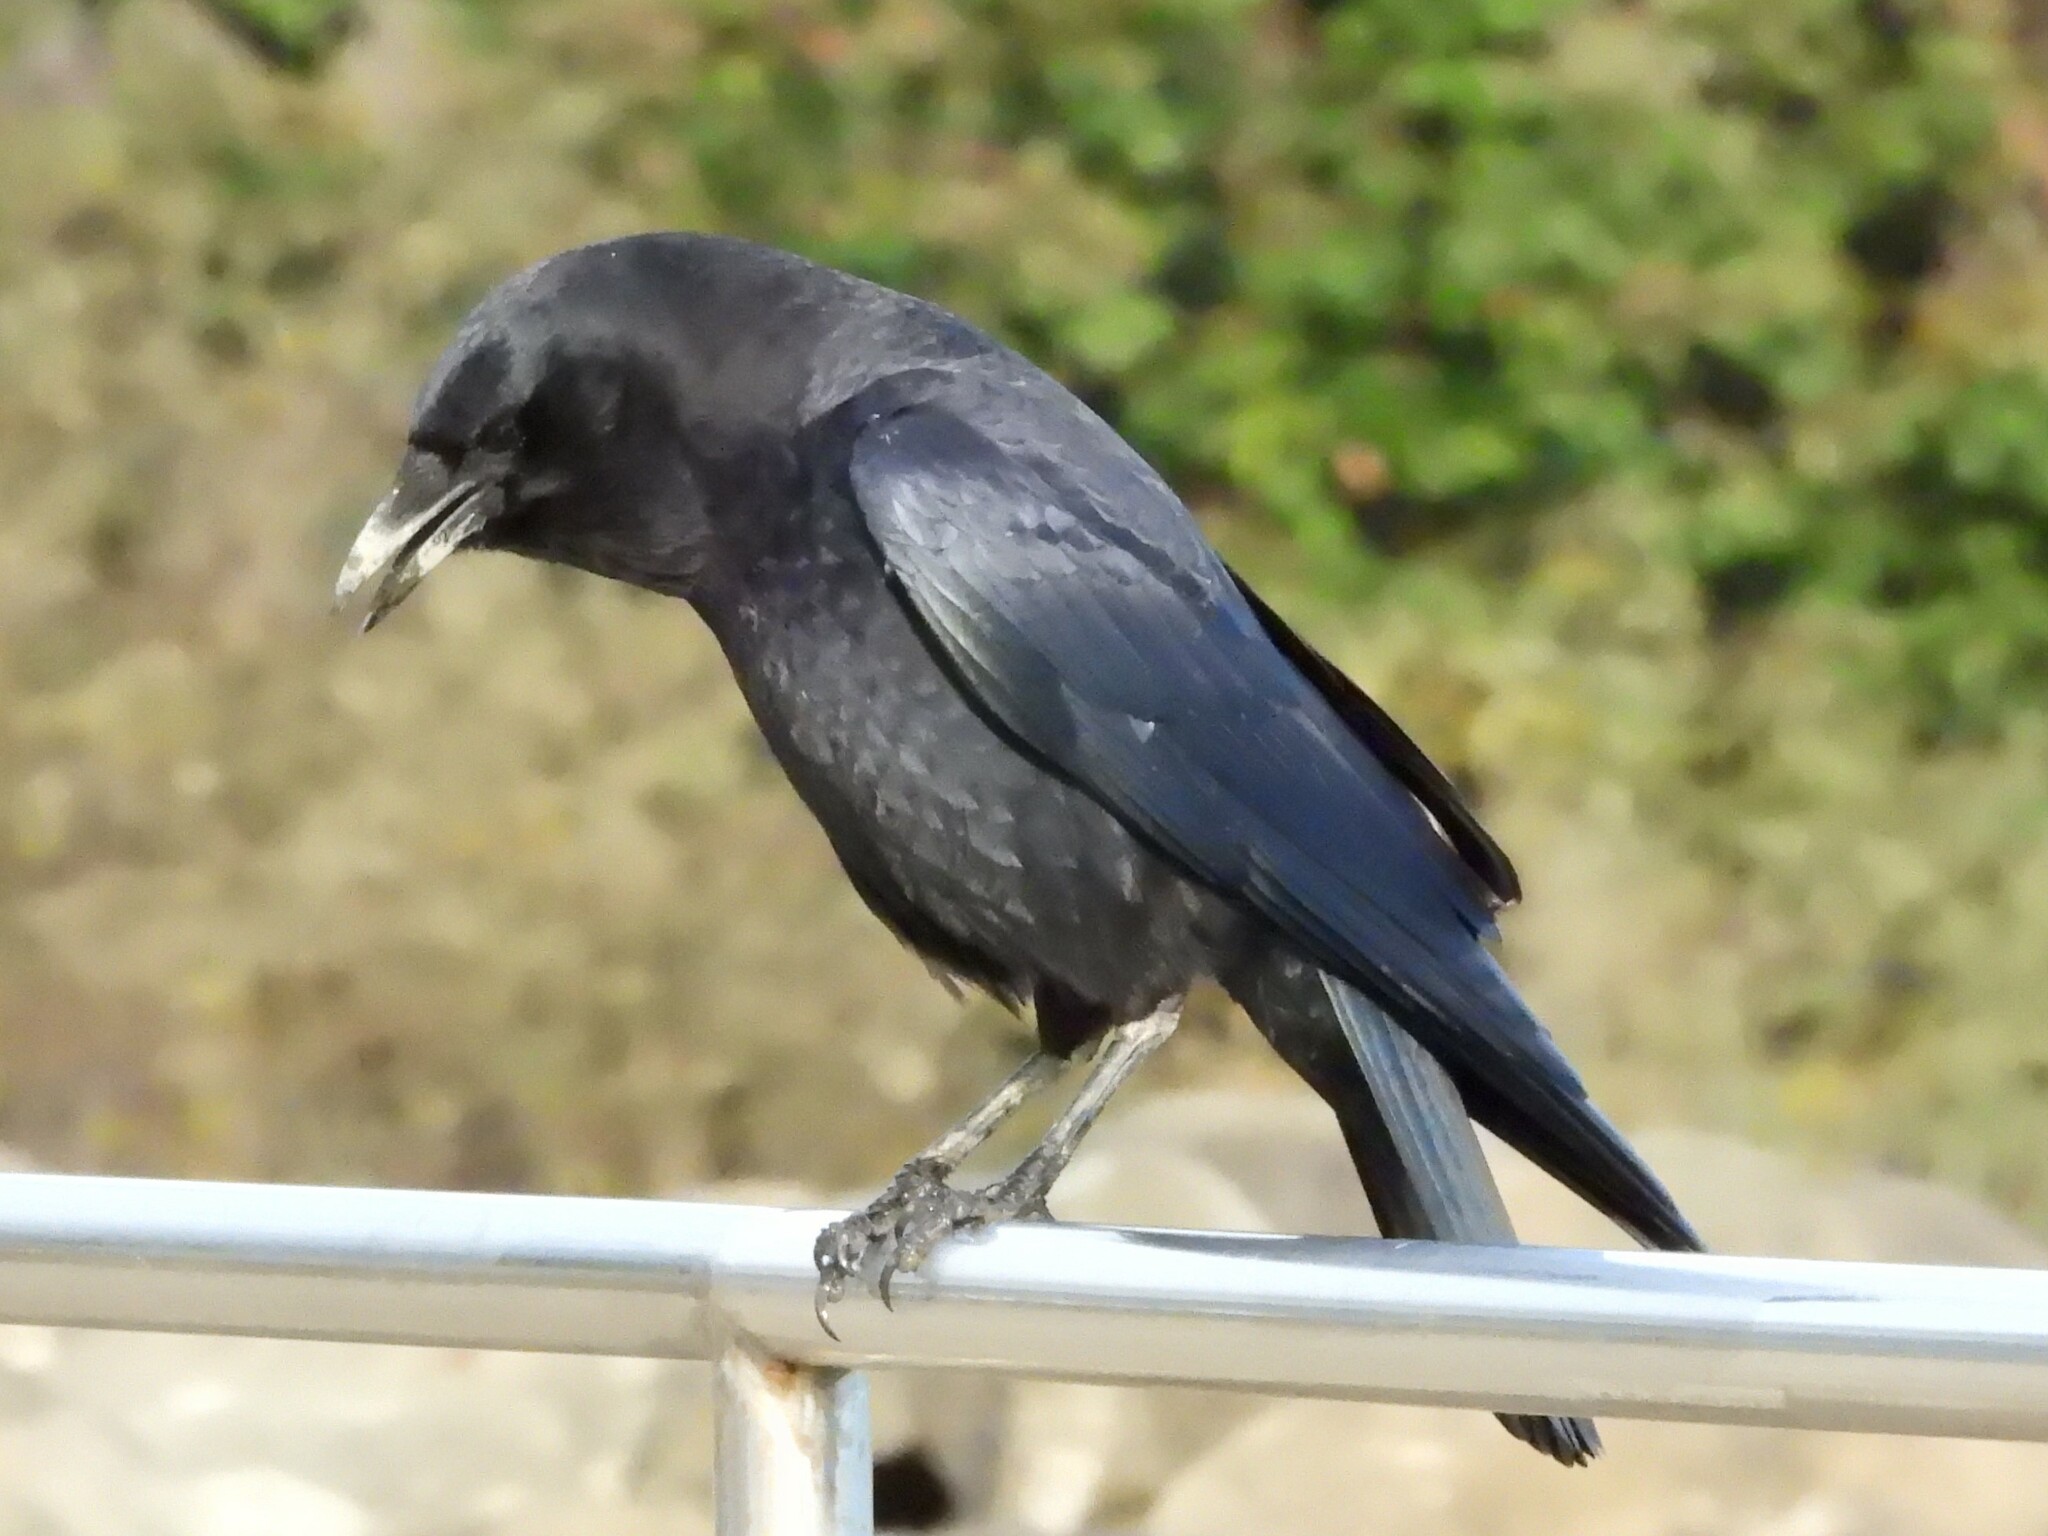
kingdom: Animalia
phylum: Chordata
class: Aves
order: Passeriformes
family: Corvidae
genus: Corvus
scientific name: Corvus brachyrhynchos
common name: American crow
